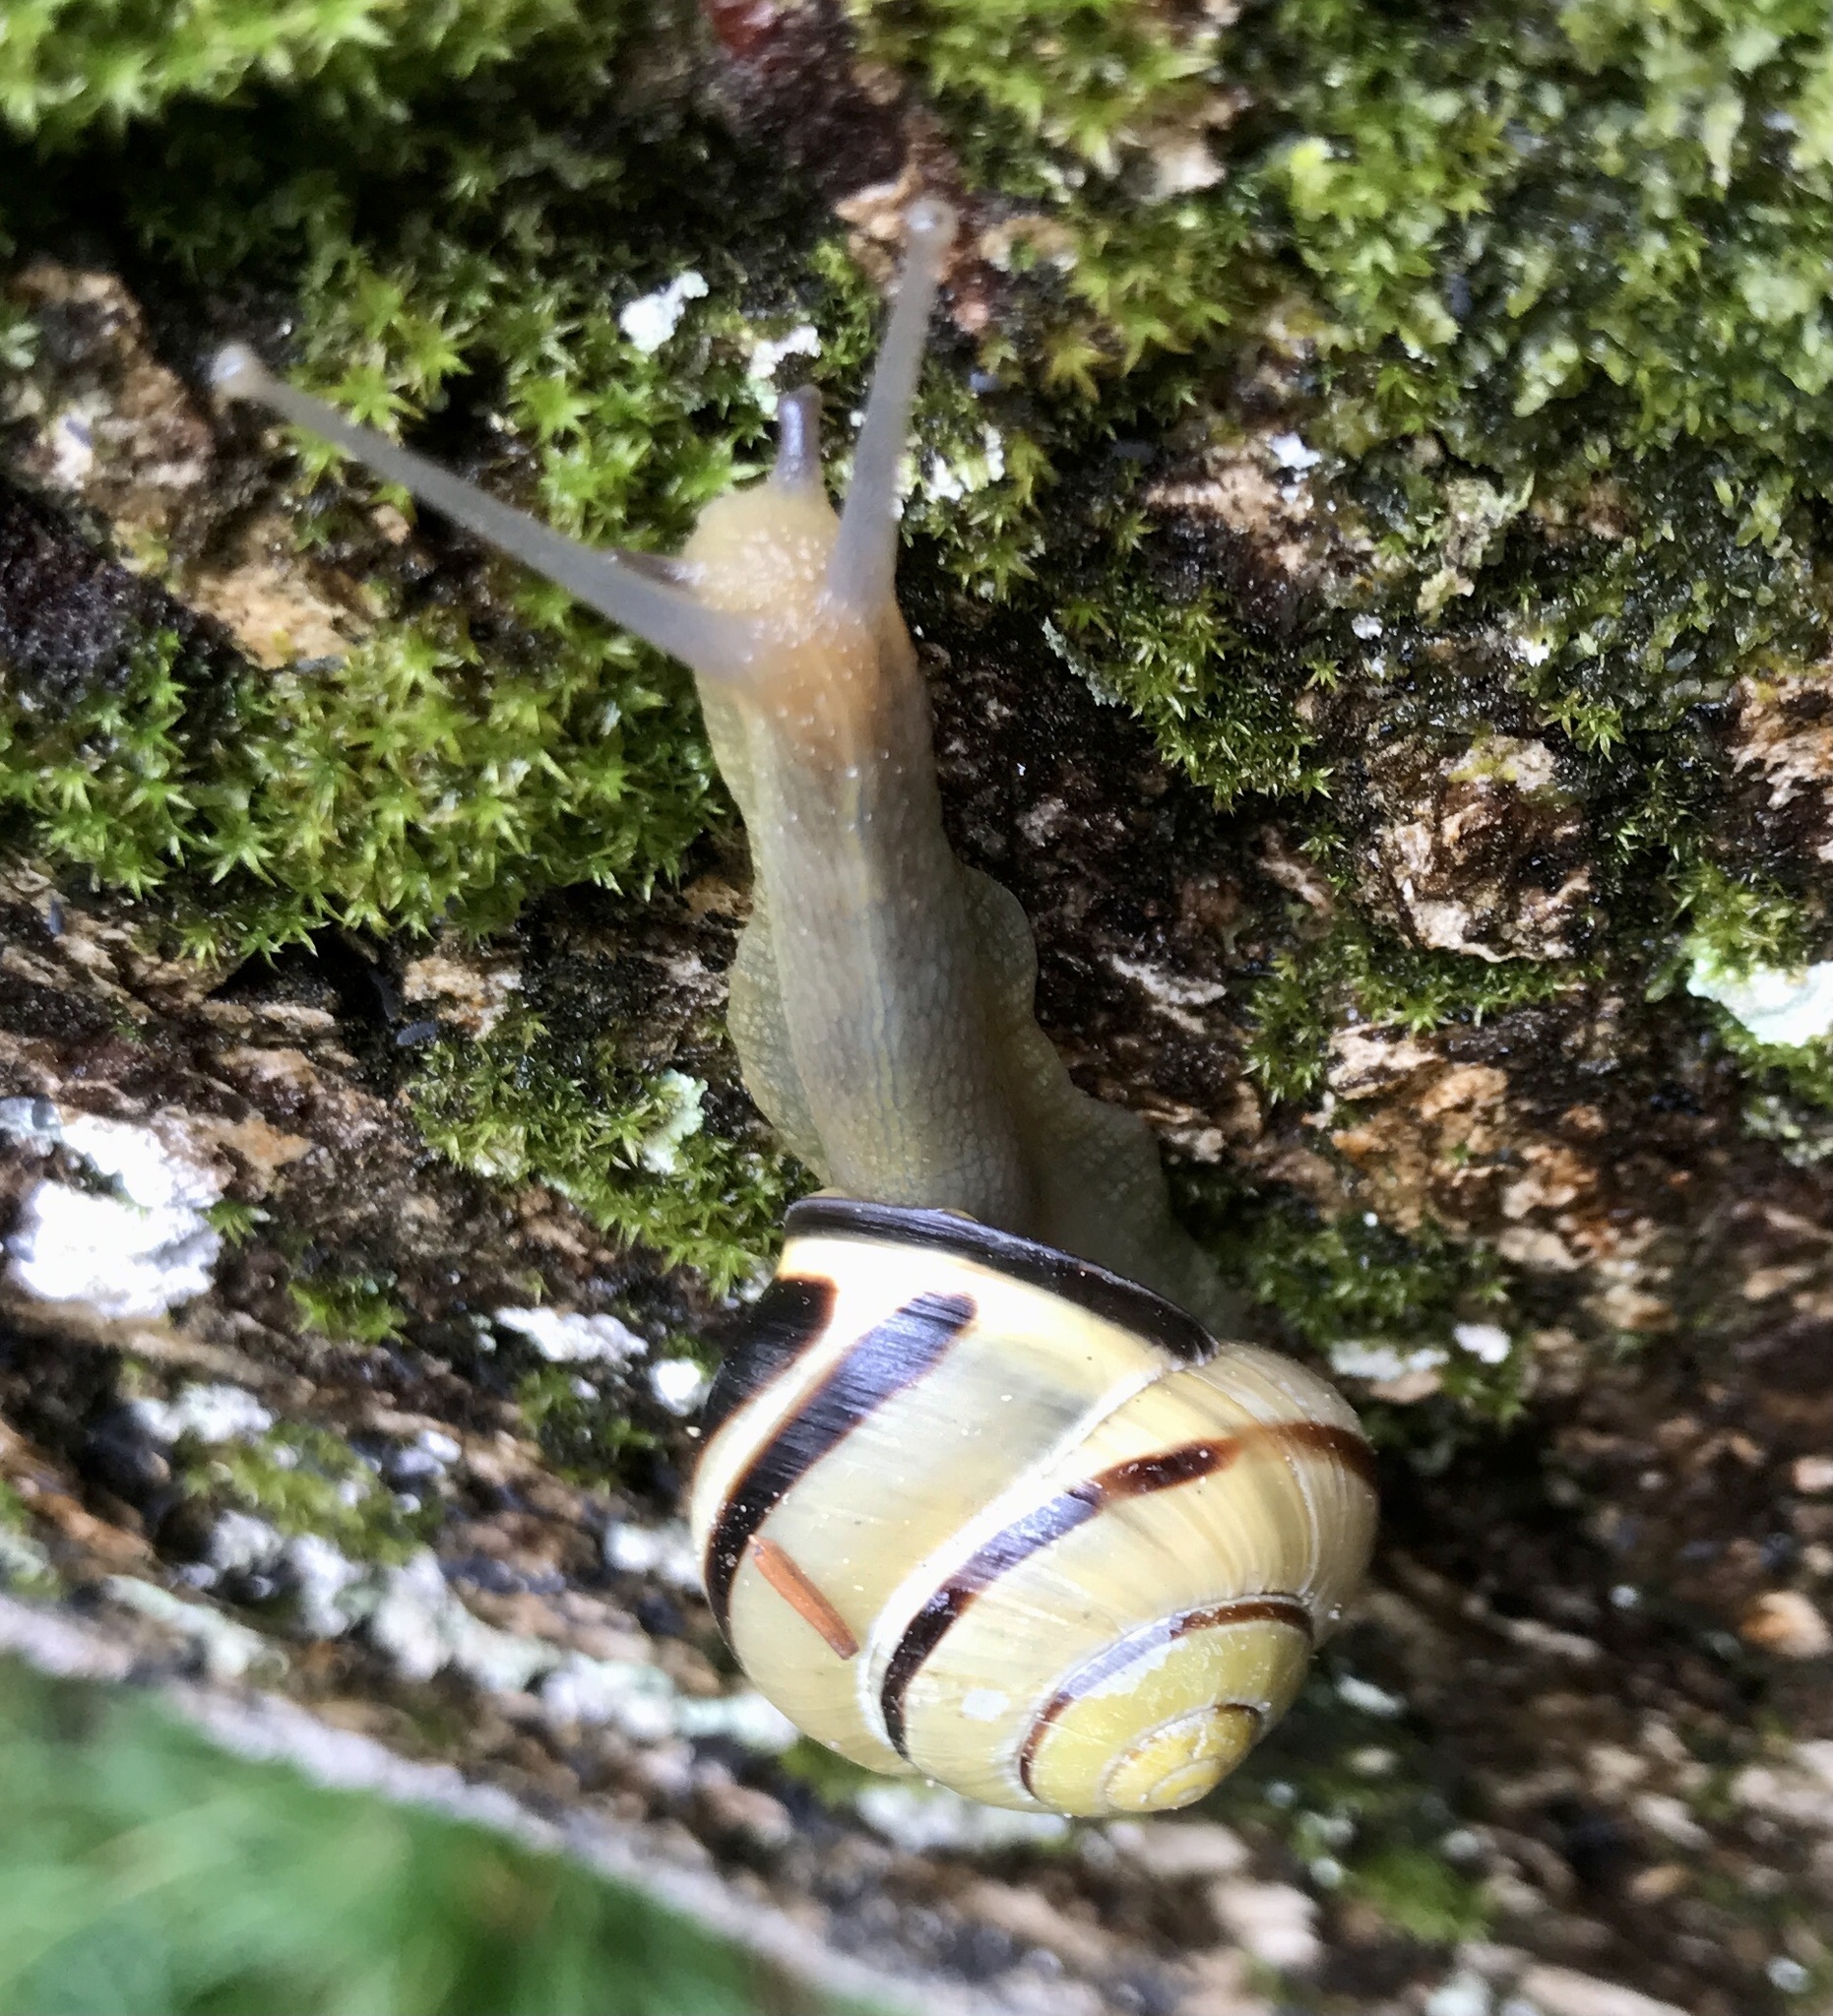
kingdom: Animalia
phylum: Mollusca
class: Gastropoda
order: Stylommatophora
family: Helicidae
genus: Cepaea
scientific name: Cepaea nemoralis
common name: Grovesnail
